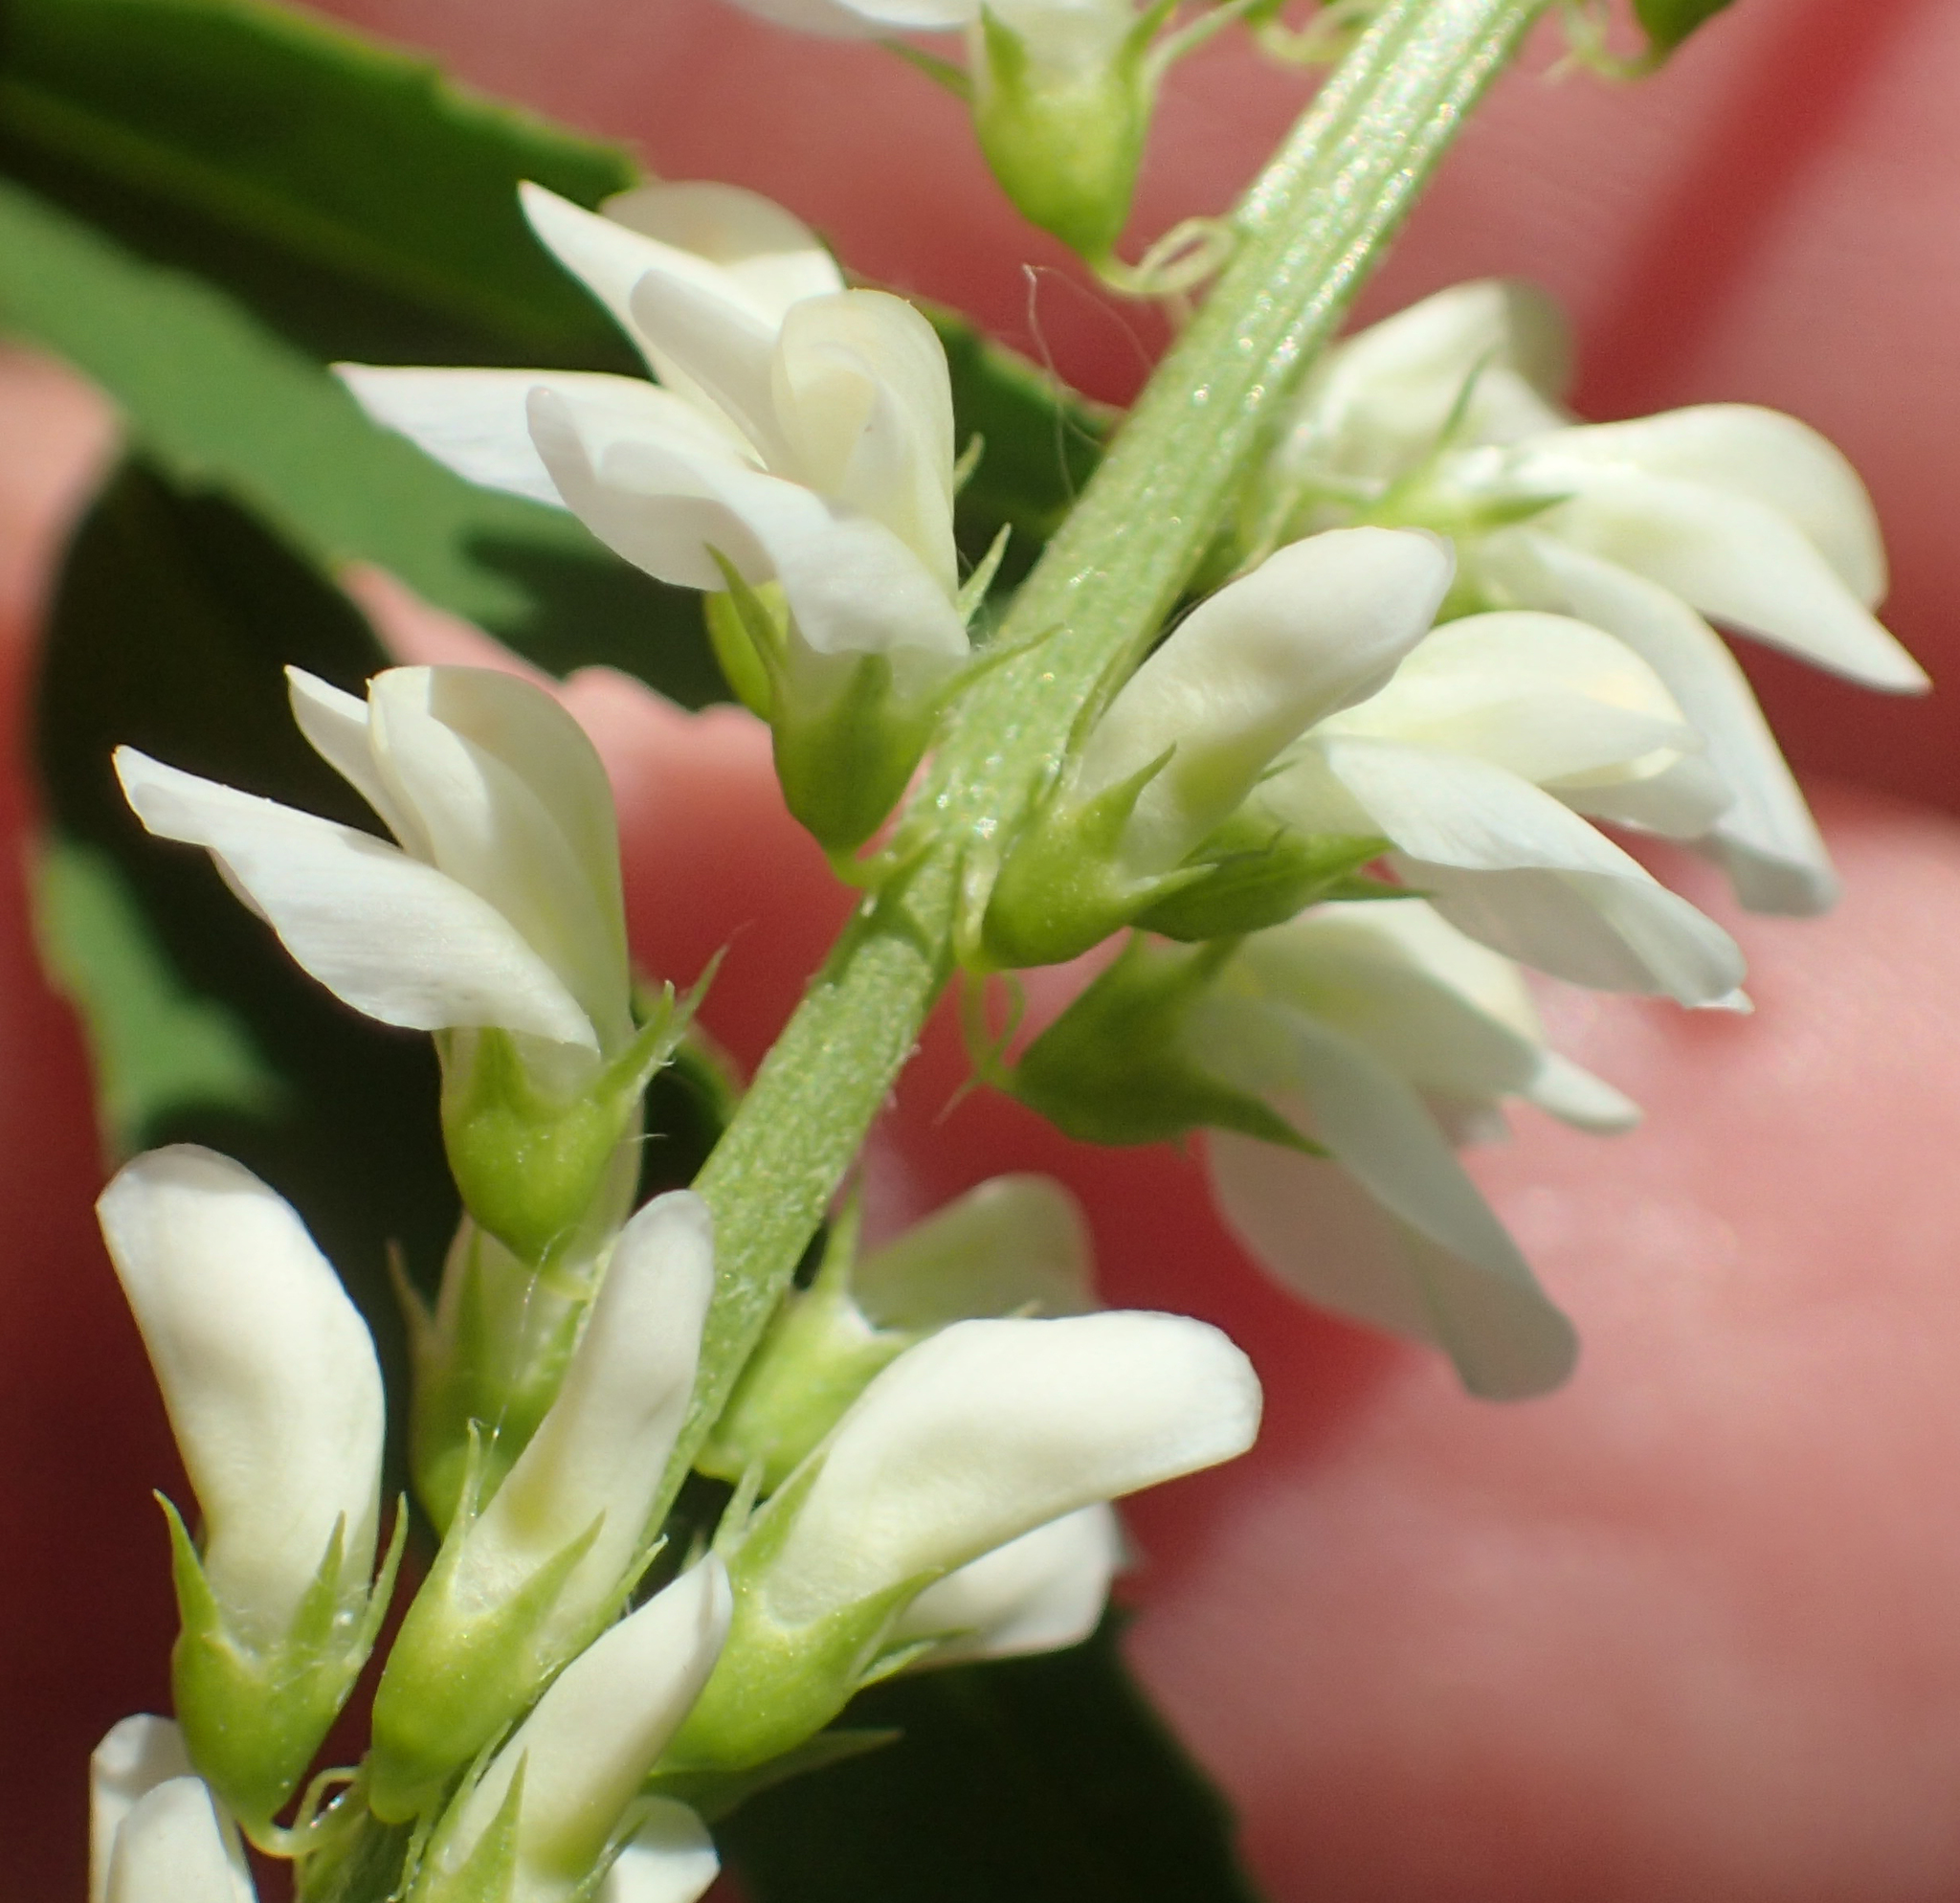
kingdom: Plantae
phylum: Tracheophyta
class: Magnoliopsida
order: Fabales
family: Fabaceae
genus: Melilotus
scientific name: Melilotus albus
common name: White melilot
